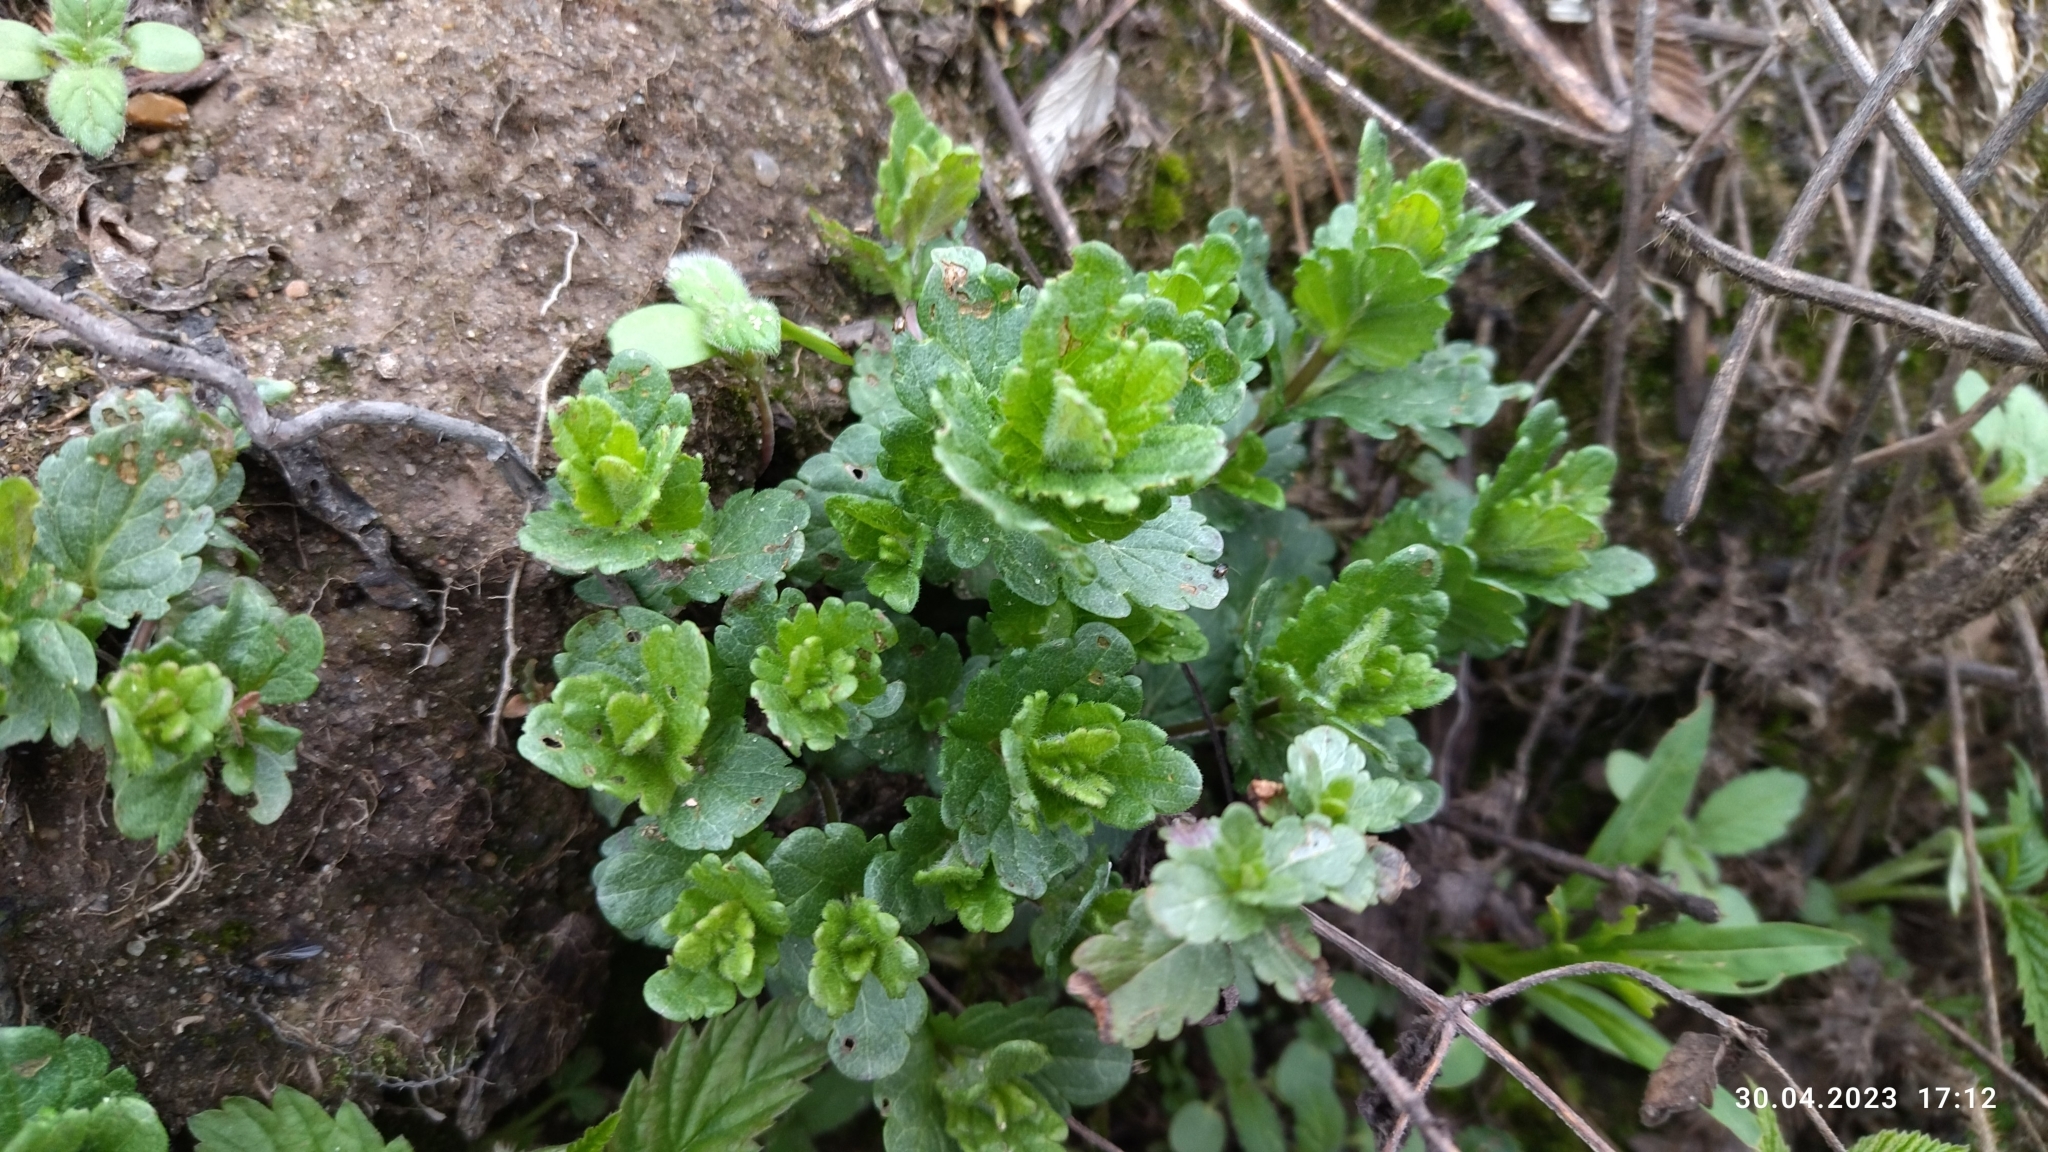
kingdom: Plantae
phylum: Tracheophyta
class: Magnoliopsida
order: Lamiales
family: Plantaginaceae
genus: Veronica
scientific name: Veronica chamaedrys
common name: Germander speedwell
